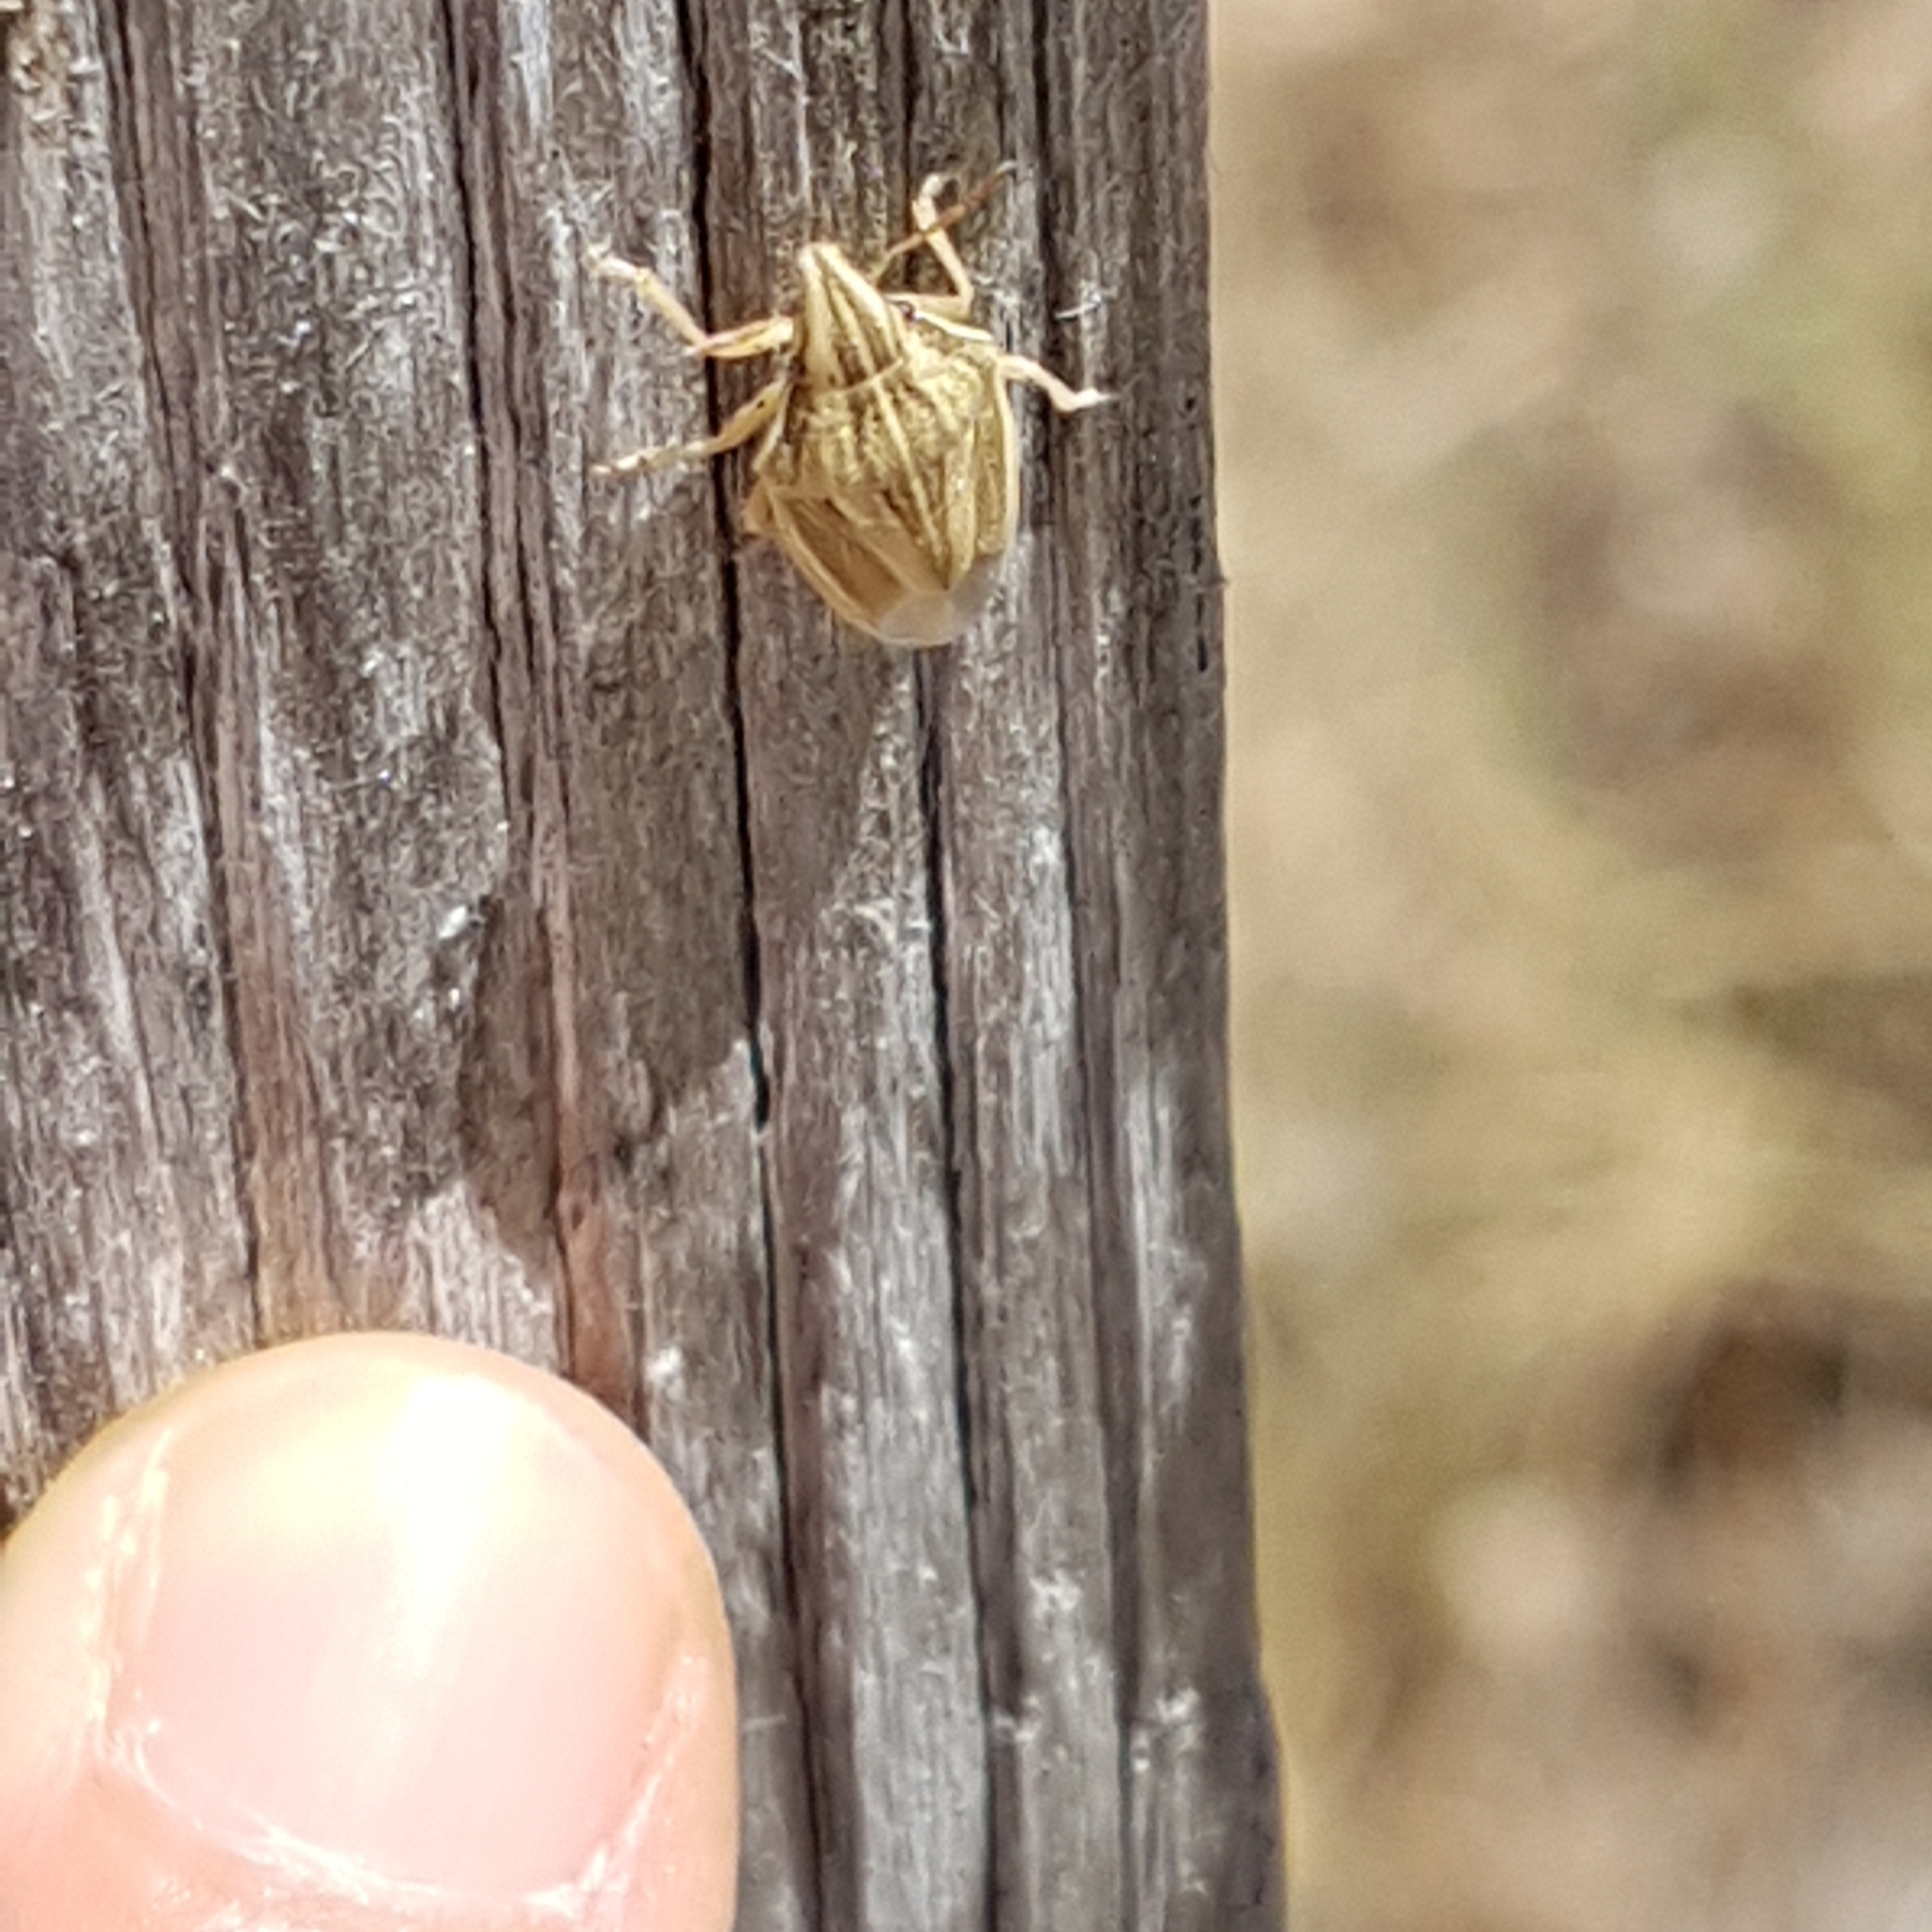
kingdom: Animalia
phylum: Arthropoda
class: Insecta
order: Hemiptera
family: Pentatomidae
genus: Aelia
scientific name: Aelia acuminata
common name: Bishop's mitre
